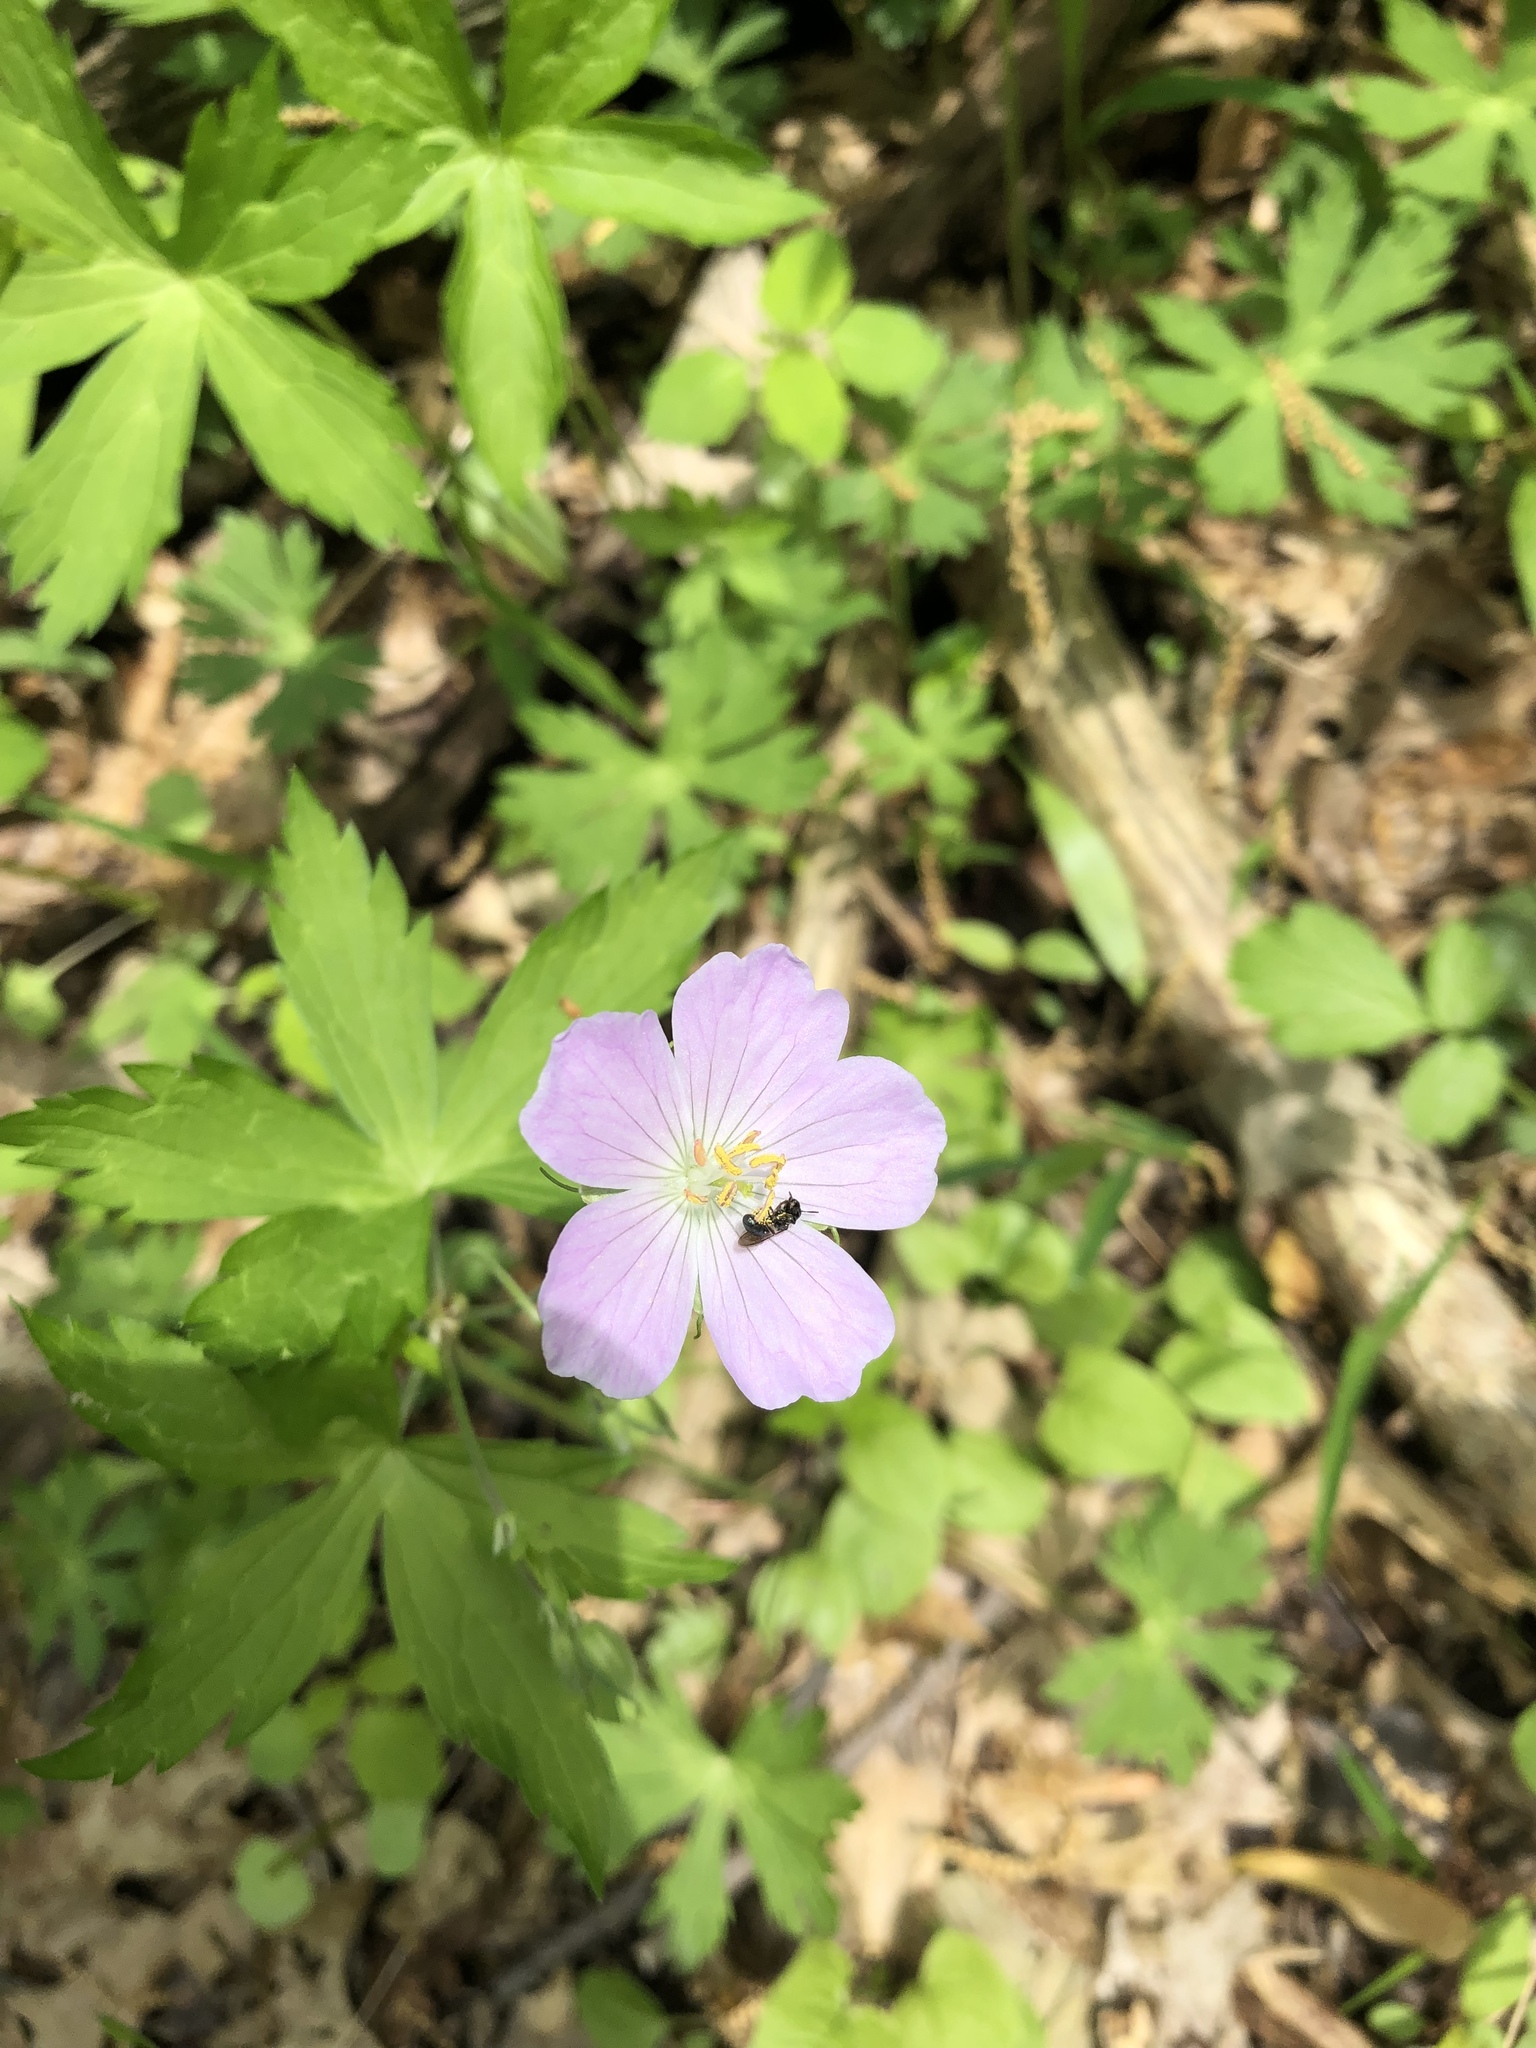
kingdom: Plantae
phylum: Tracheophyta
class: Magnoliopsida
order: Geraniales
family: Geraniaceae
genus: Geranium
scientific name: Geranium maculatum
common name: Spotted geranium
